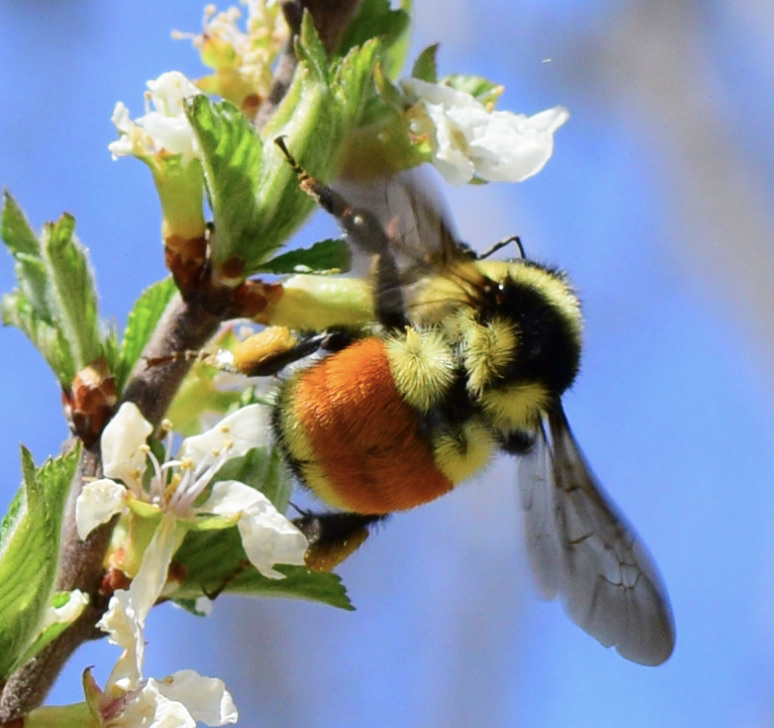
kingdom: Animalia
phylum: Arthropoda
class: Insecta
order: Hymenoptera
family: Apidae
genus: Bombus
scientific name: Bombus ternarius
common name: Tri-colored bumble bee
